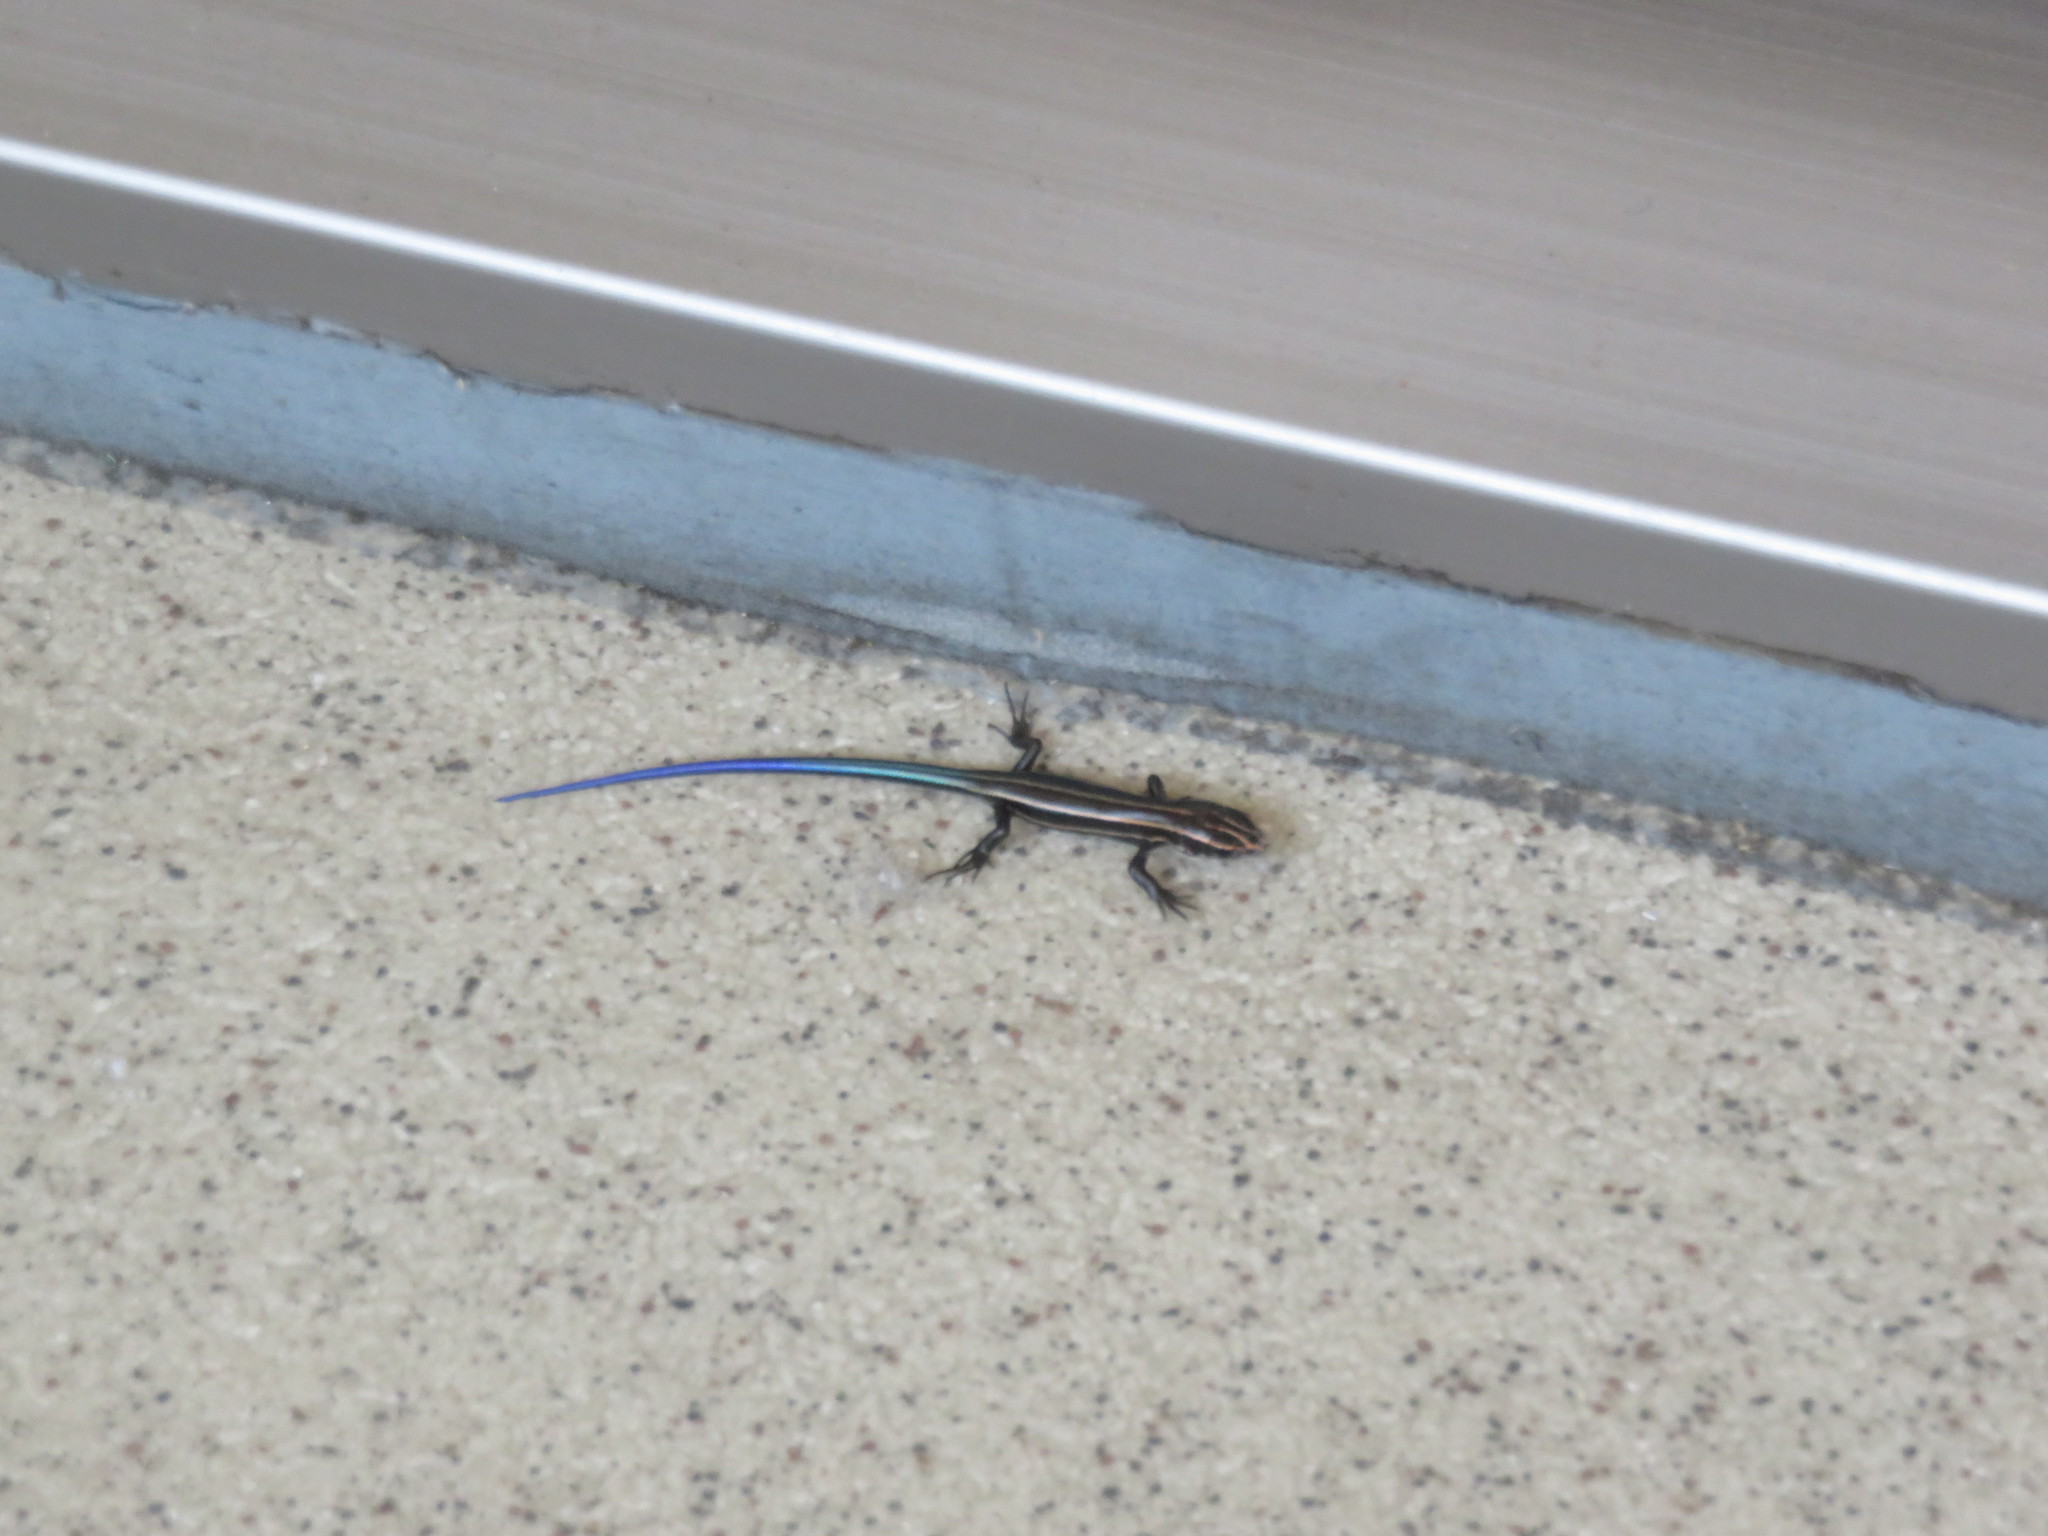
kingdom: Animalia
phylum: Chordata
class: Squamata
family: Scincidae
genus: Plestiodon
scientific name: Plestiodon finitimus
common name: Far eastern skink
